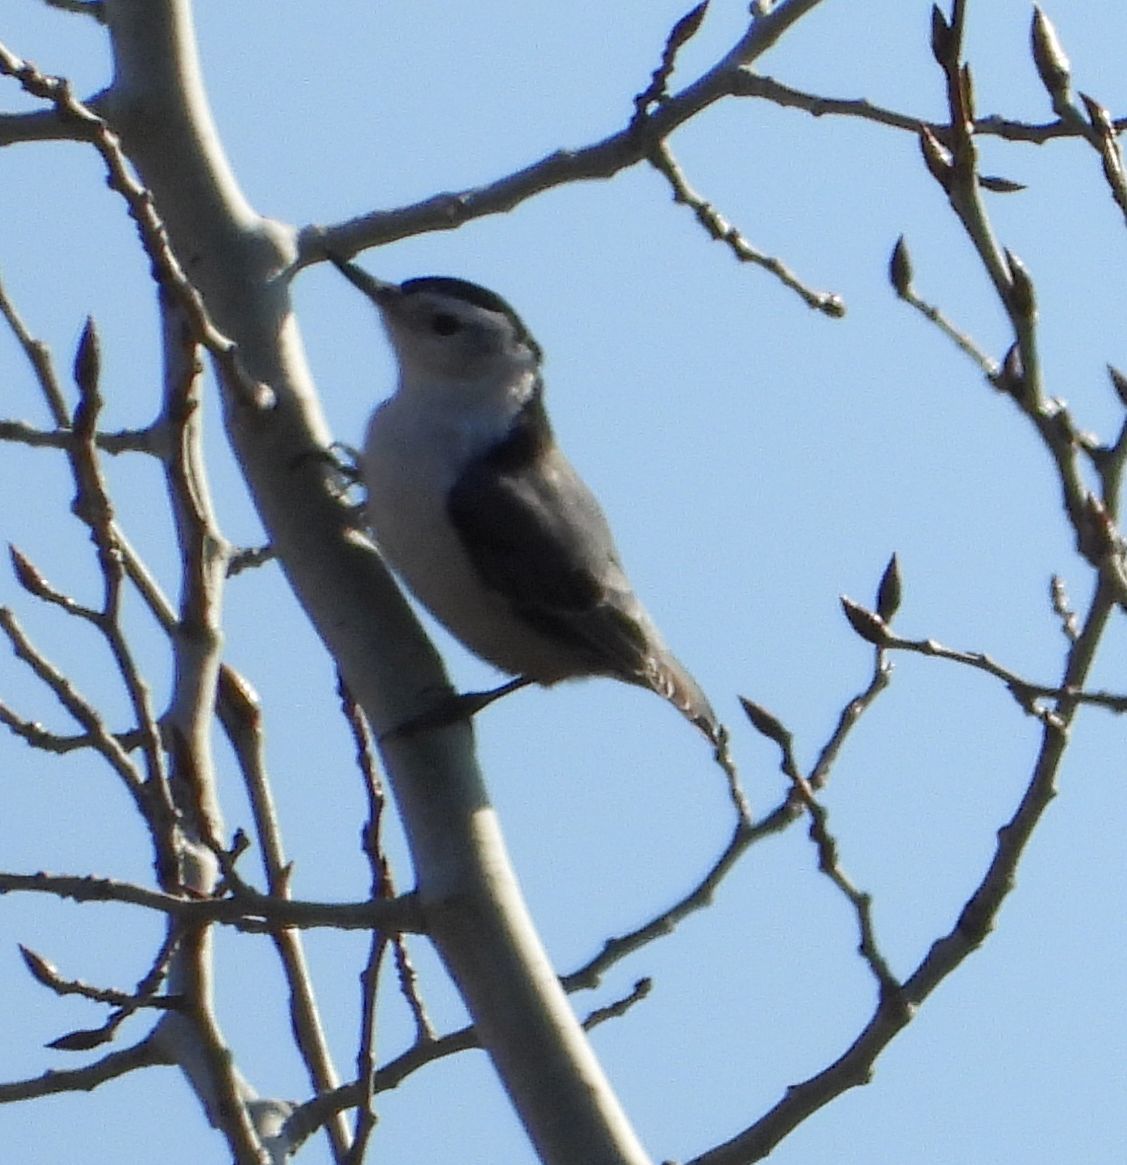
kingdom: Animalia
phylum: Chordata
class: Aves
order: Passeriformes
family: Sittidae
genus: Sitta
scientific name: Sitta carolinensis
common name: White-breasted nuthatch
